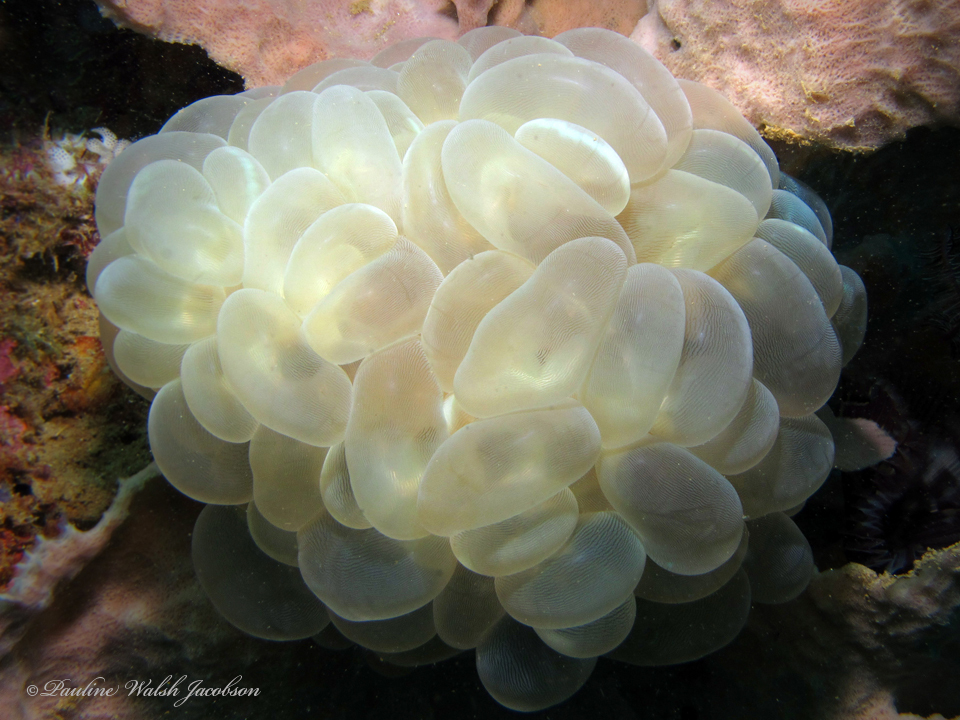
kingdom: Animalia
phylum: Cnidaria
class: Anthozoa
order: Scleractinia
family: Plerogyridae
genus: Plerogyra
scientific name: Plerogyra sinuosa
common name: Bubble coral
